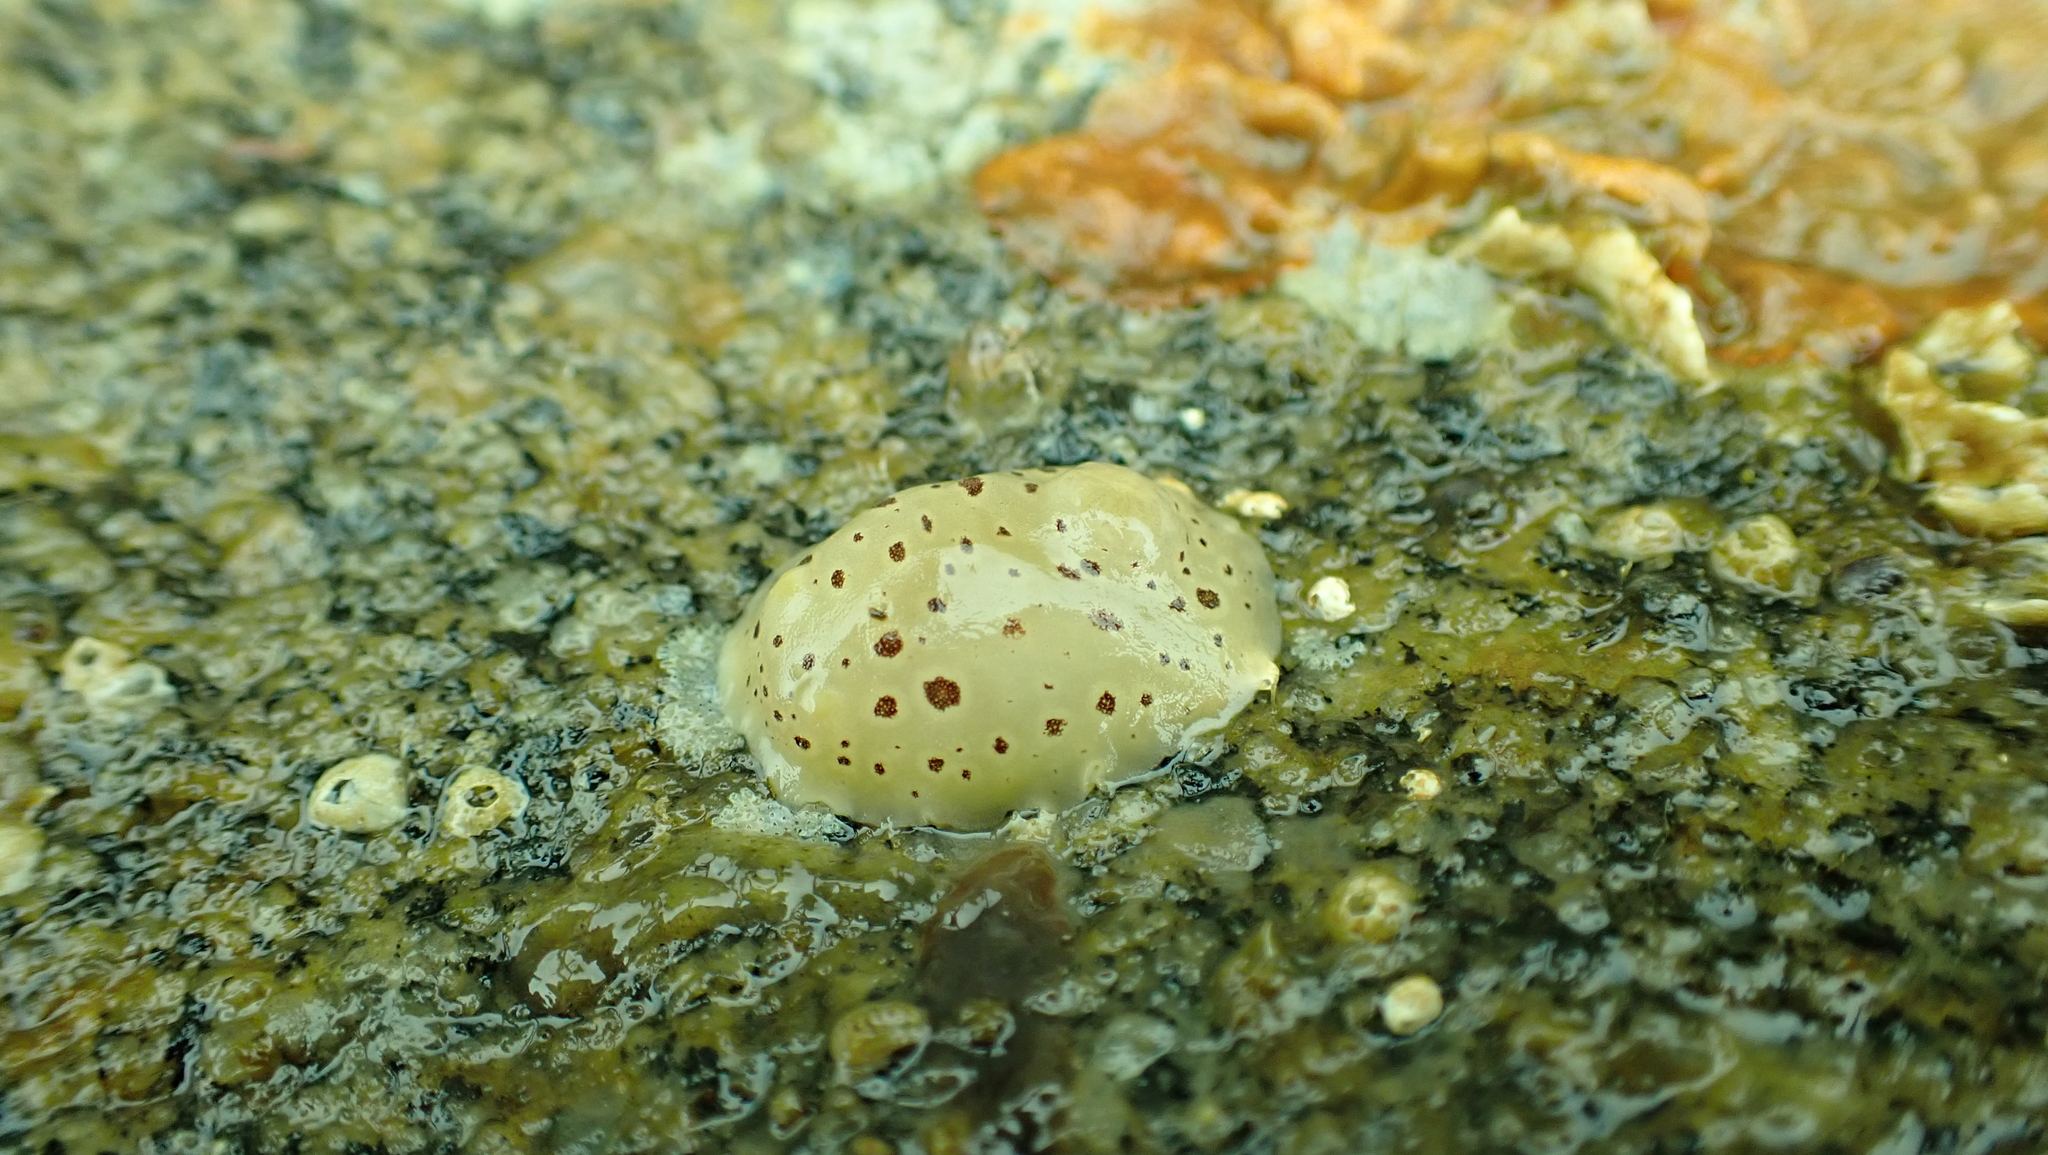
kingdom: Animalia
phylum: Mollusca
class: Gastropoda
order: Nudibranchia
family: Discodorididae
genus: Diaulula
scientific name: Diaulula odonoghuei
